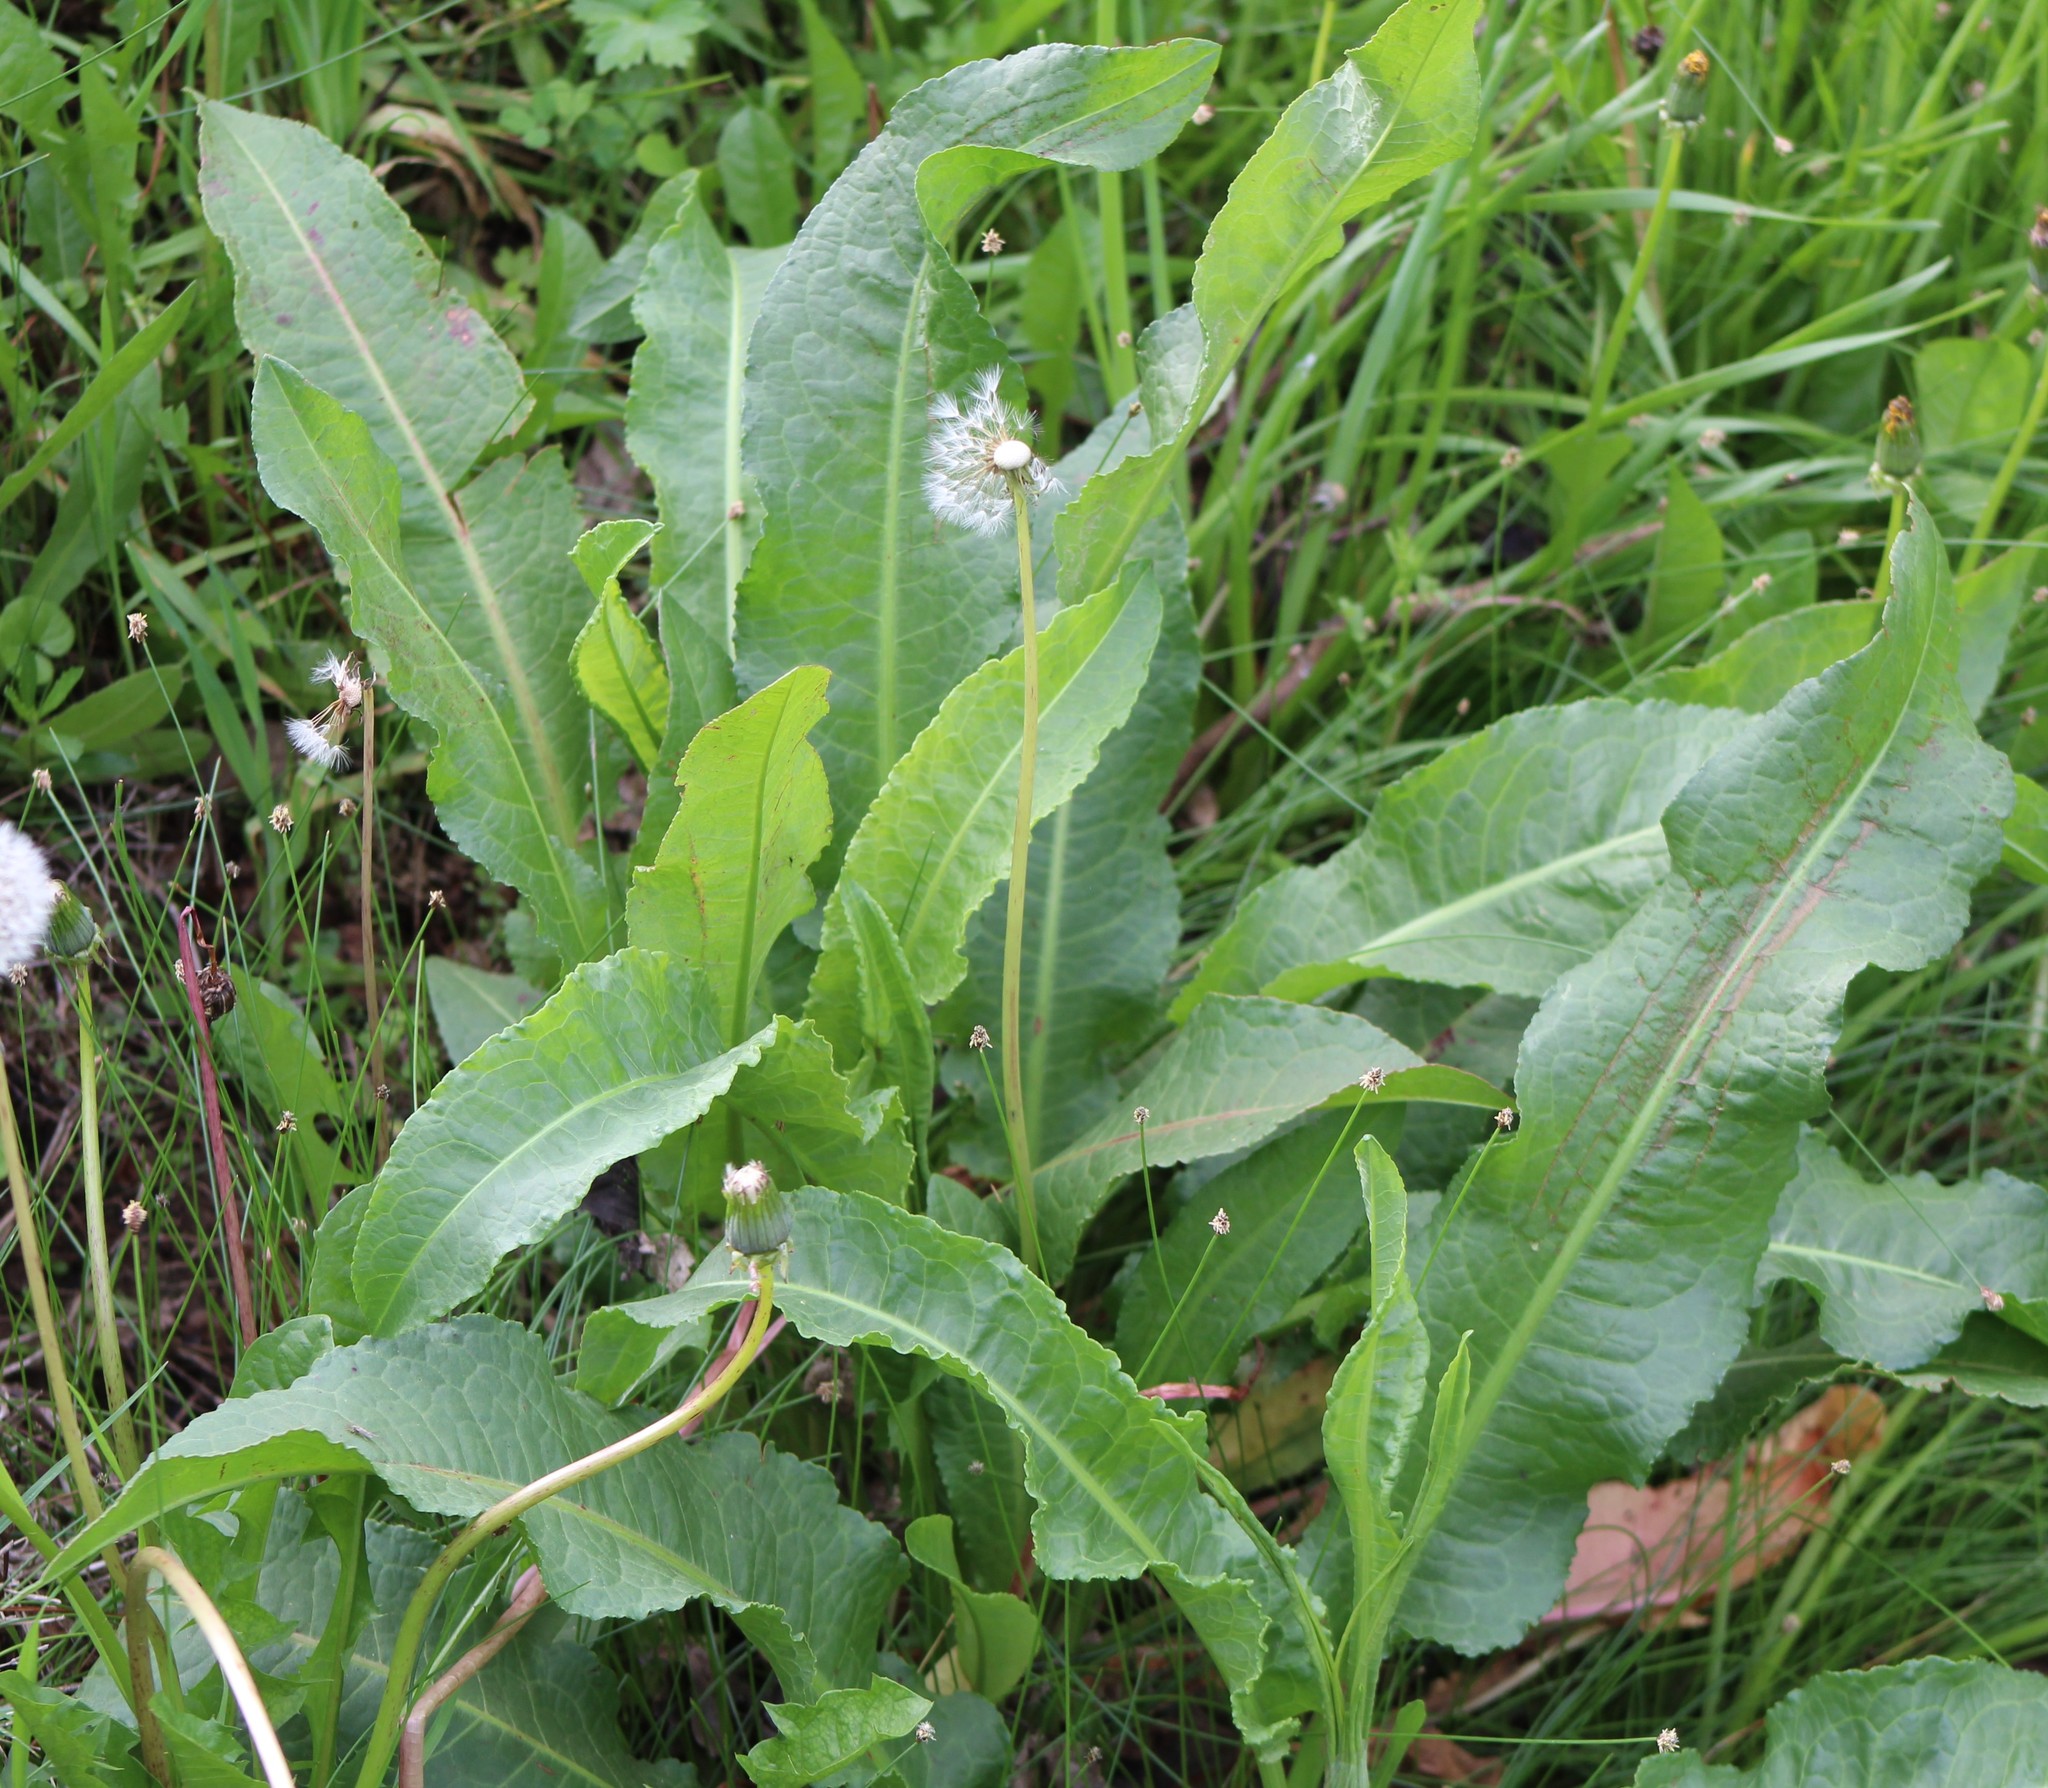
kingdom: Plantae
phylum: Tracheophyta
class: Magnoliopsida
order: Caryophyllales
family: Polygonaceae
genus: Rumex
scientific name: Rumex crispus
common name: Curled dock
